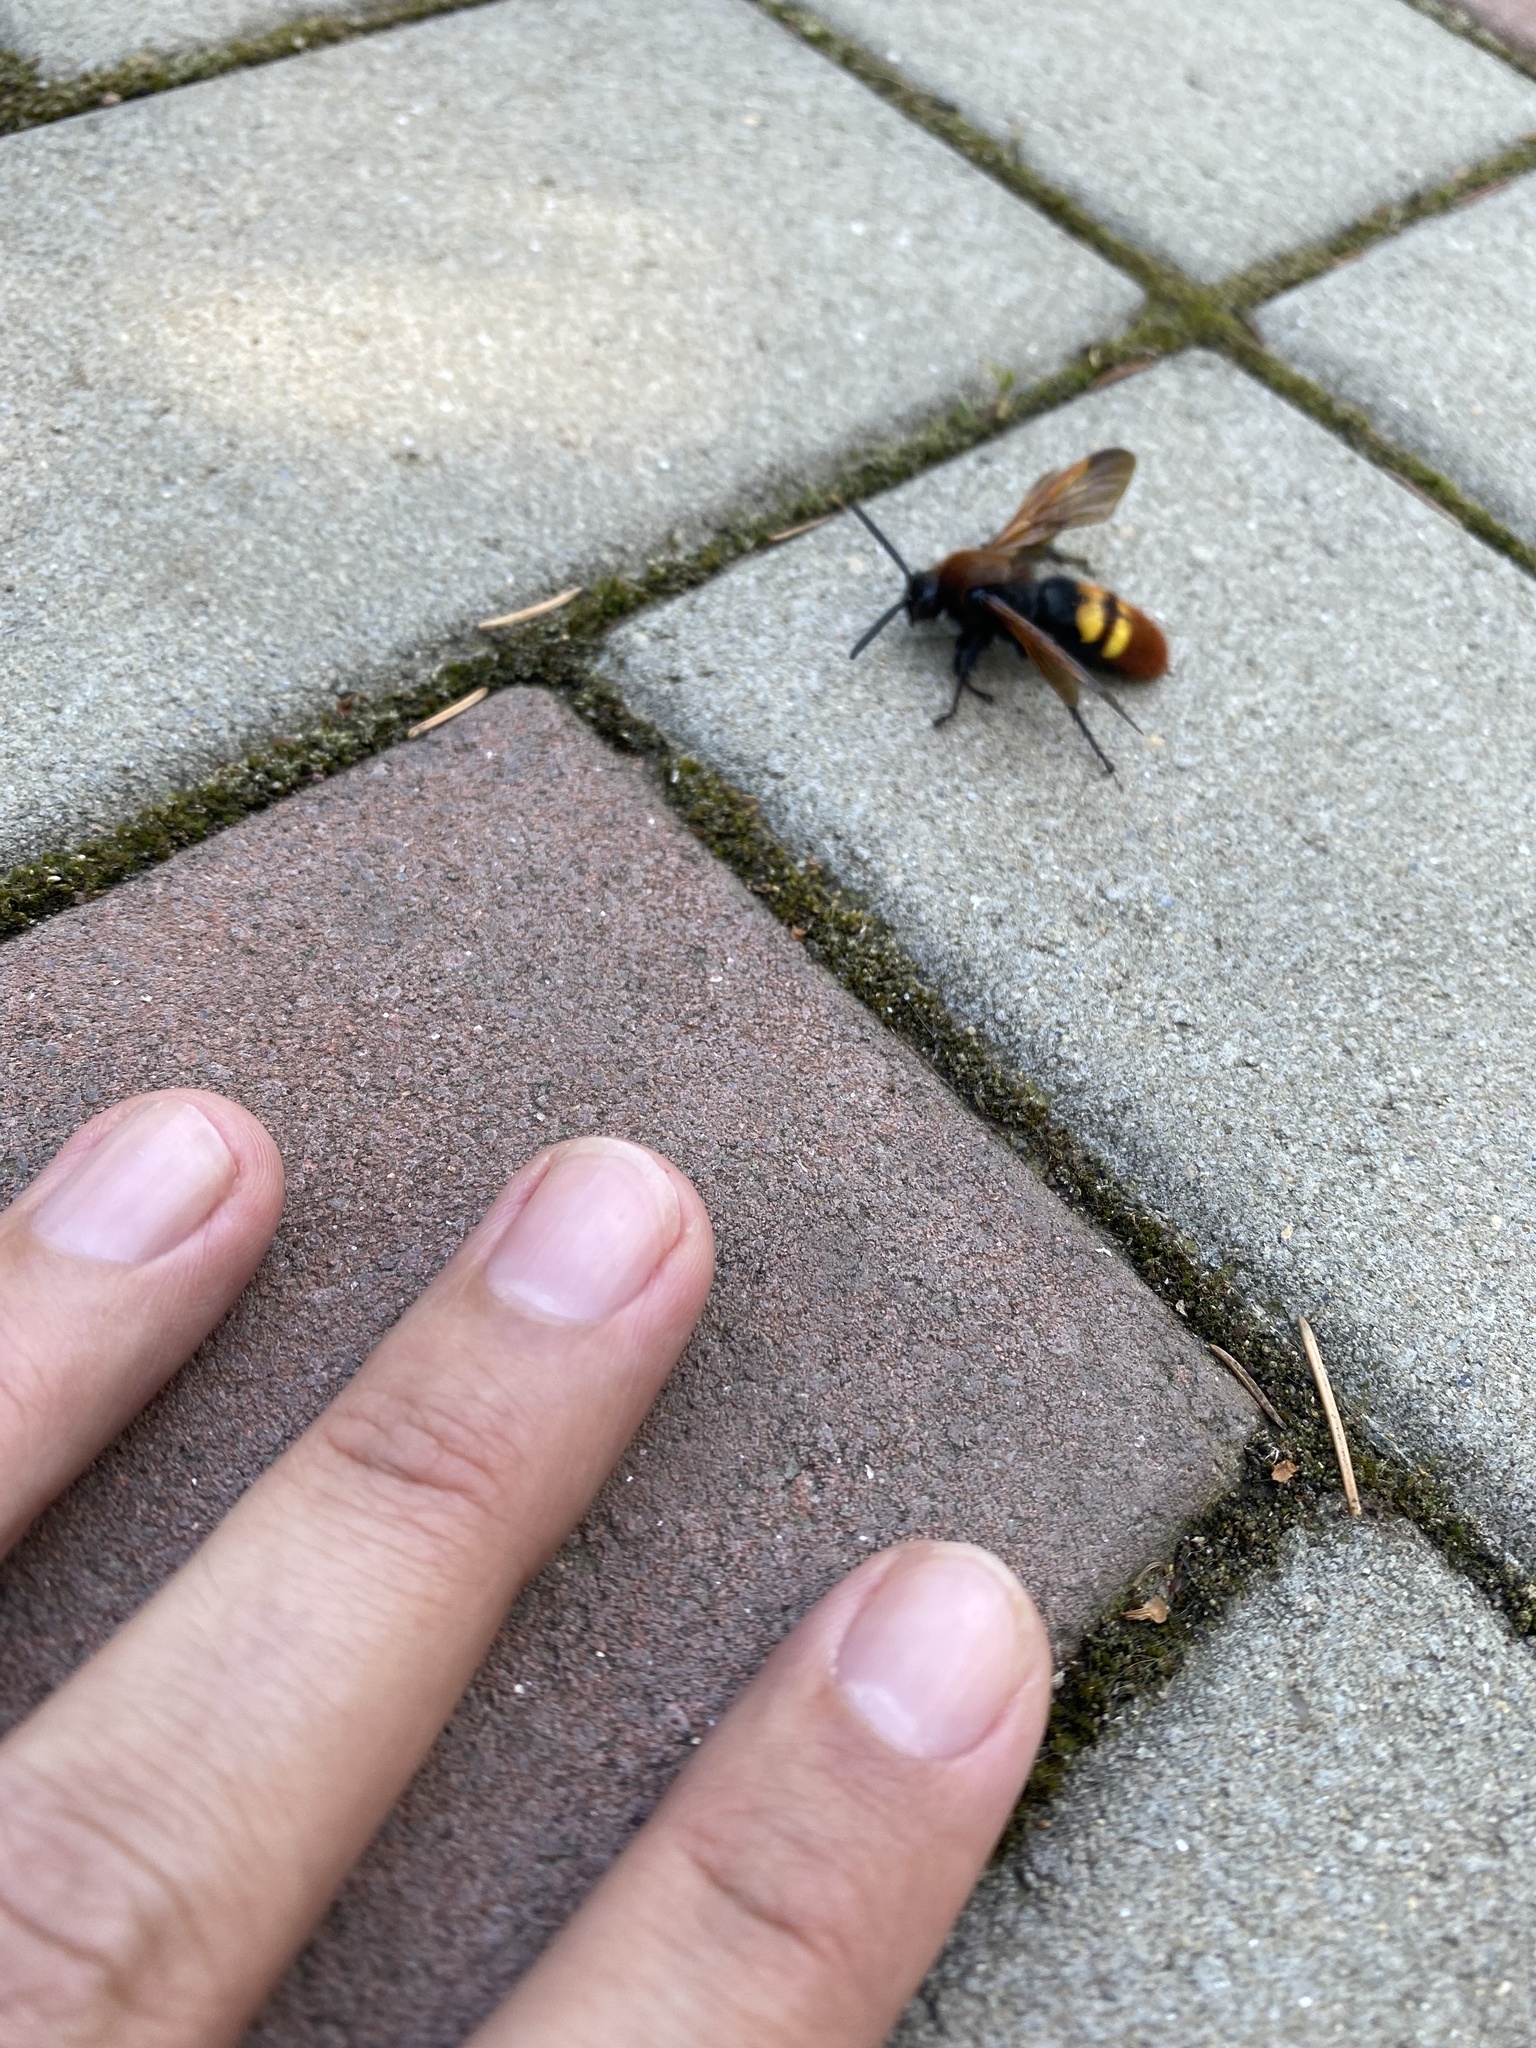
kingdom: Animalia
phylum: Arthropoda
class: Insecta
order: Hymenoptera
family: Scoliidae
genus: Megascolia
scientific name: Megascolia maculata
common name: Mammoth wasp
